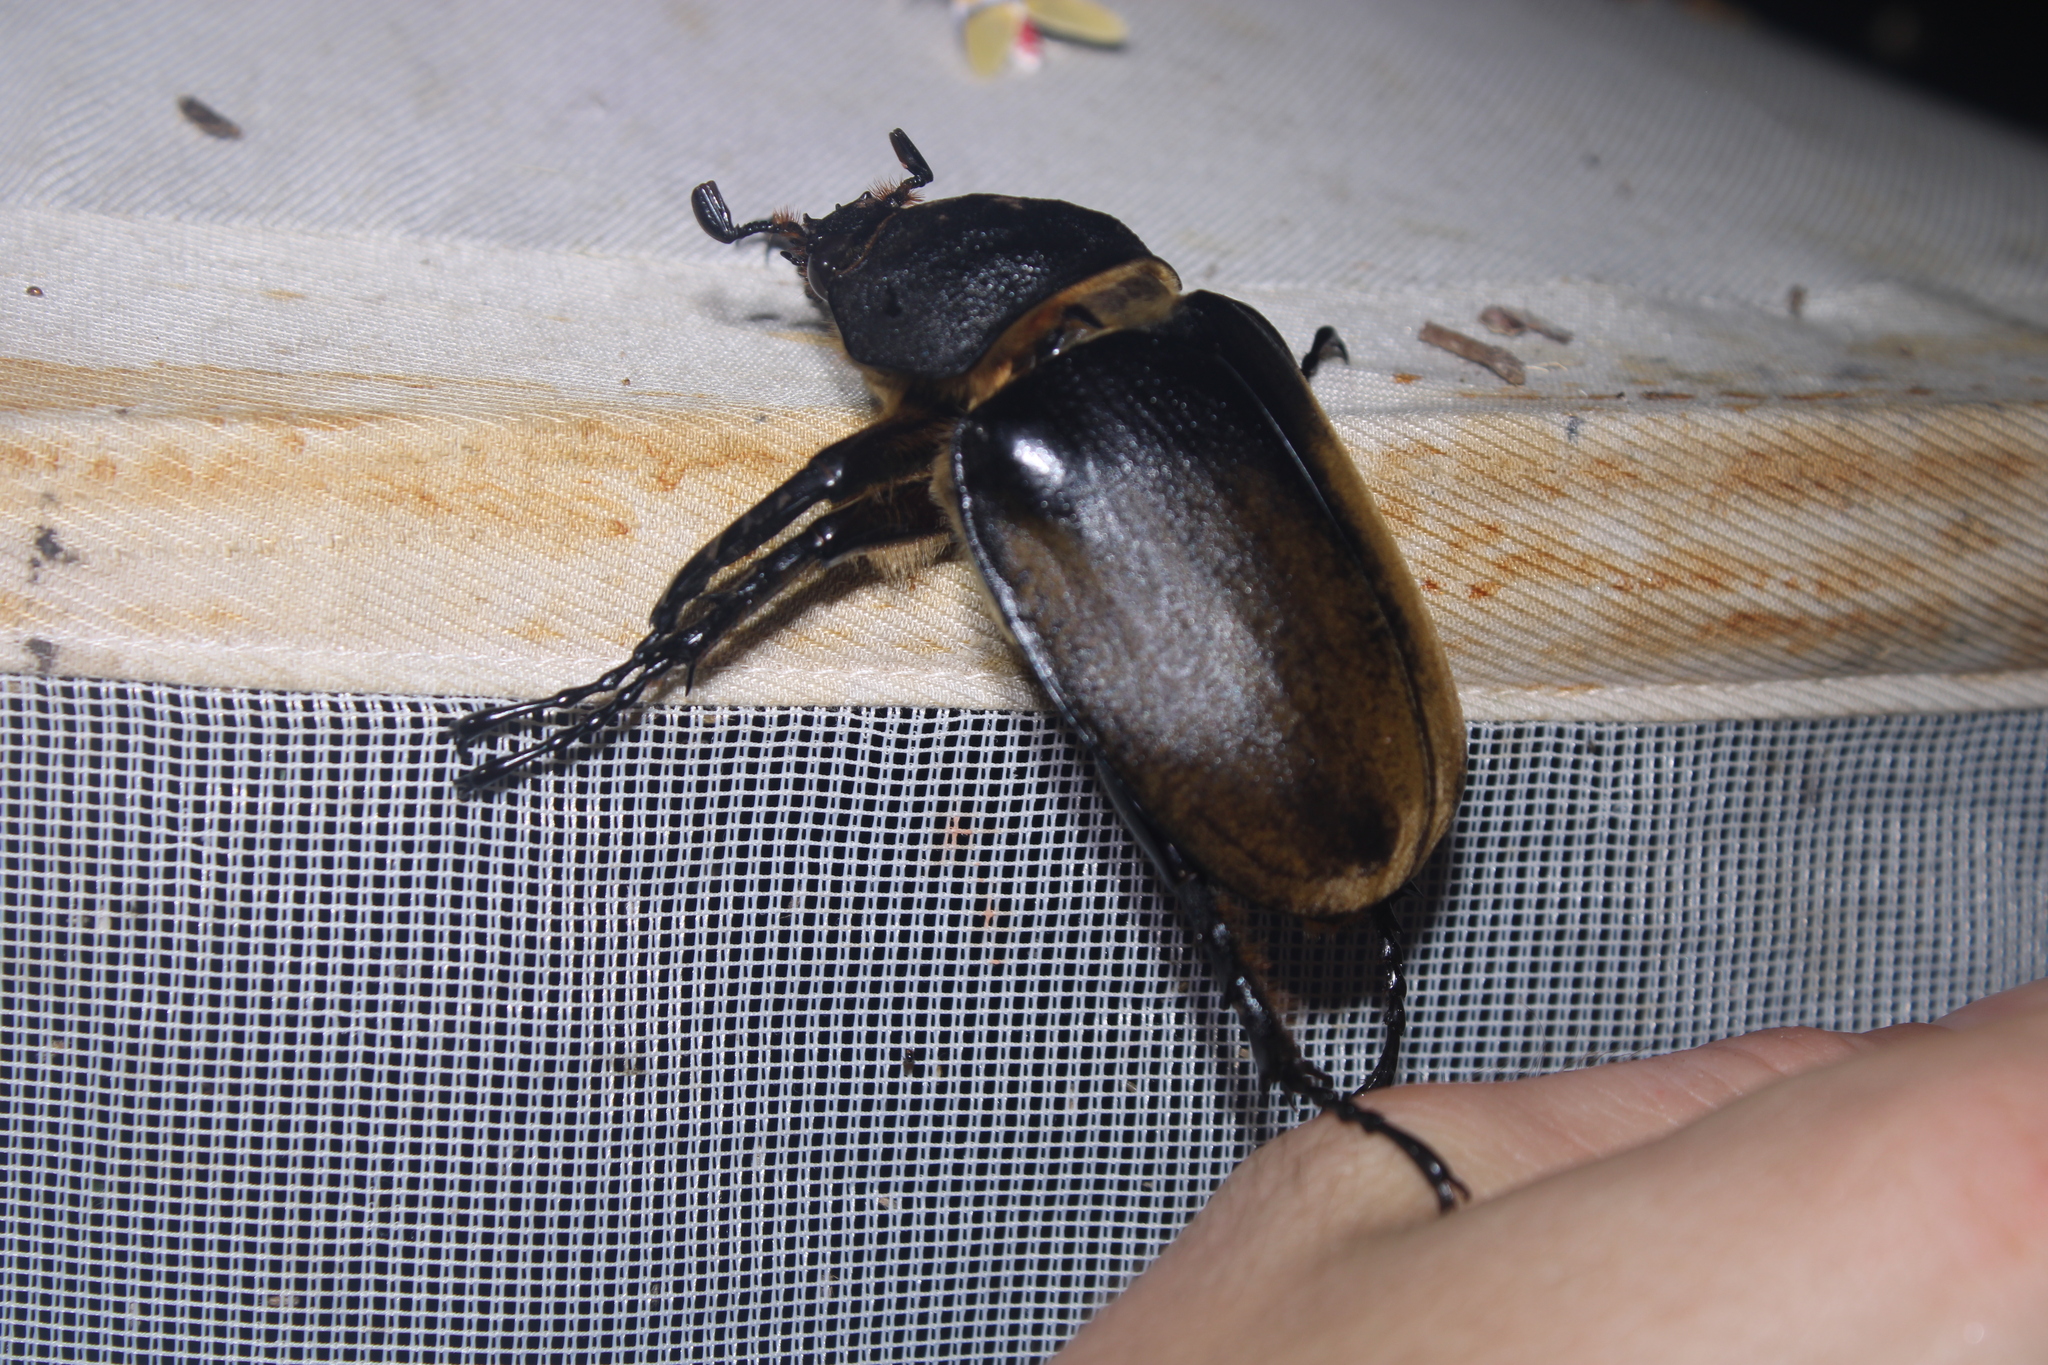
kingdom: Animalia
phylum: Arthropoda
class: Insecta
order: Coleoptera
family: Scarabaeidae
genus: Megasoma
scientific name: Megasoma elephas
